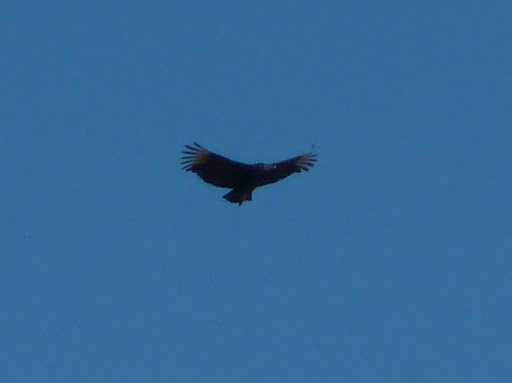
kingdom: Animalia
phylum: Chordata
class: Aves
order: Accipitriformes
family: Cathartidae
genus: Coragyps
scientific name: Coragyps atratus
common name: Black vulture
